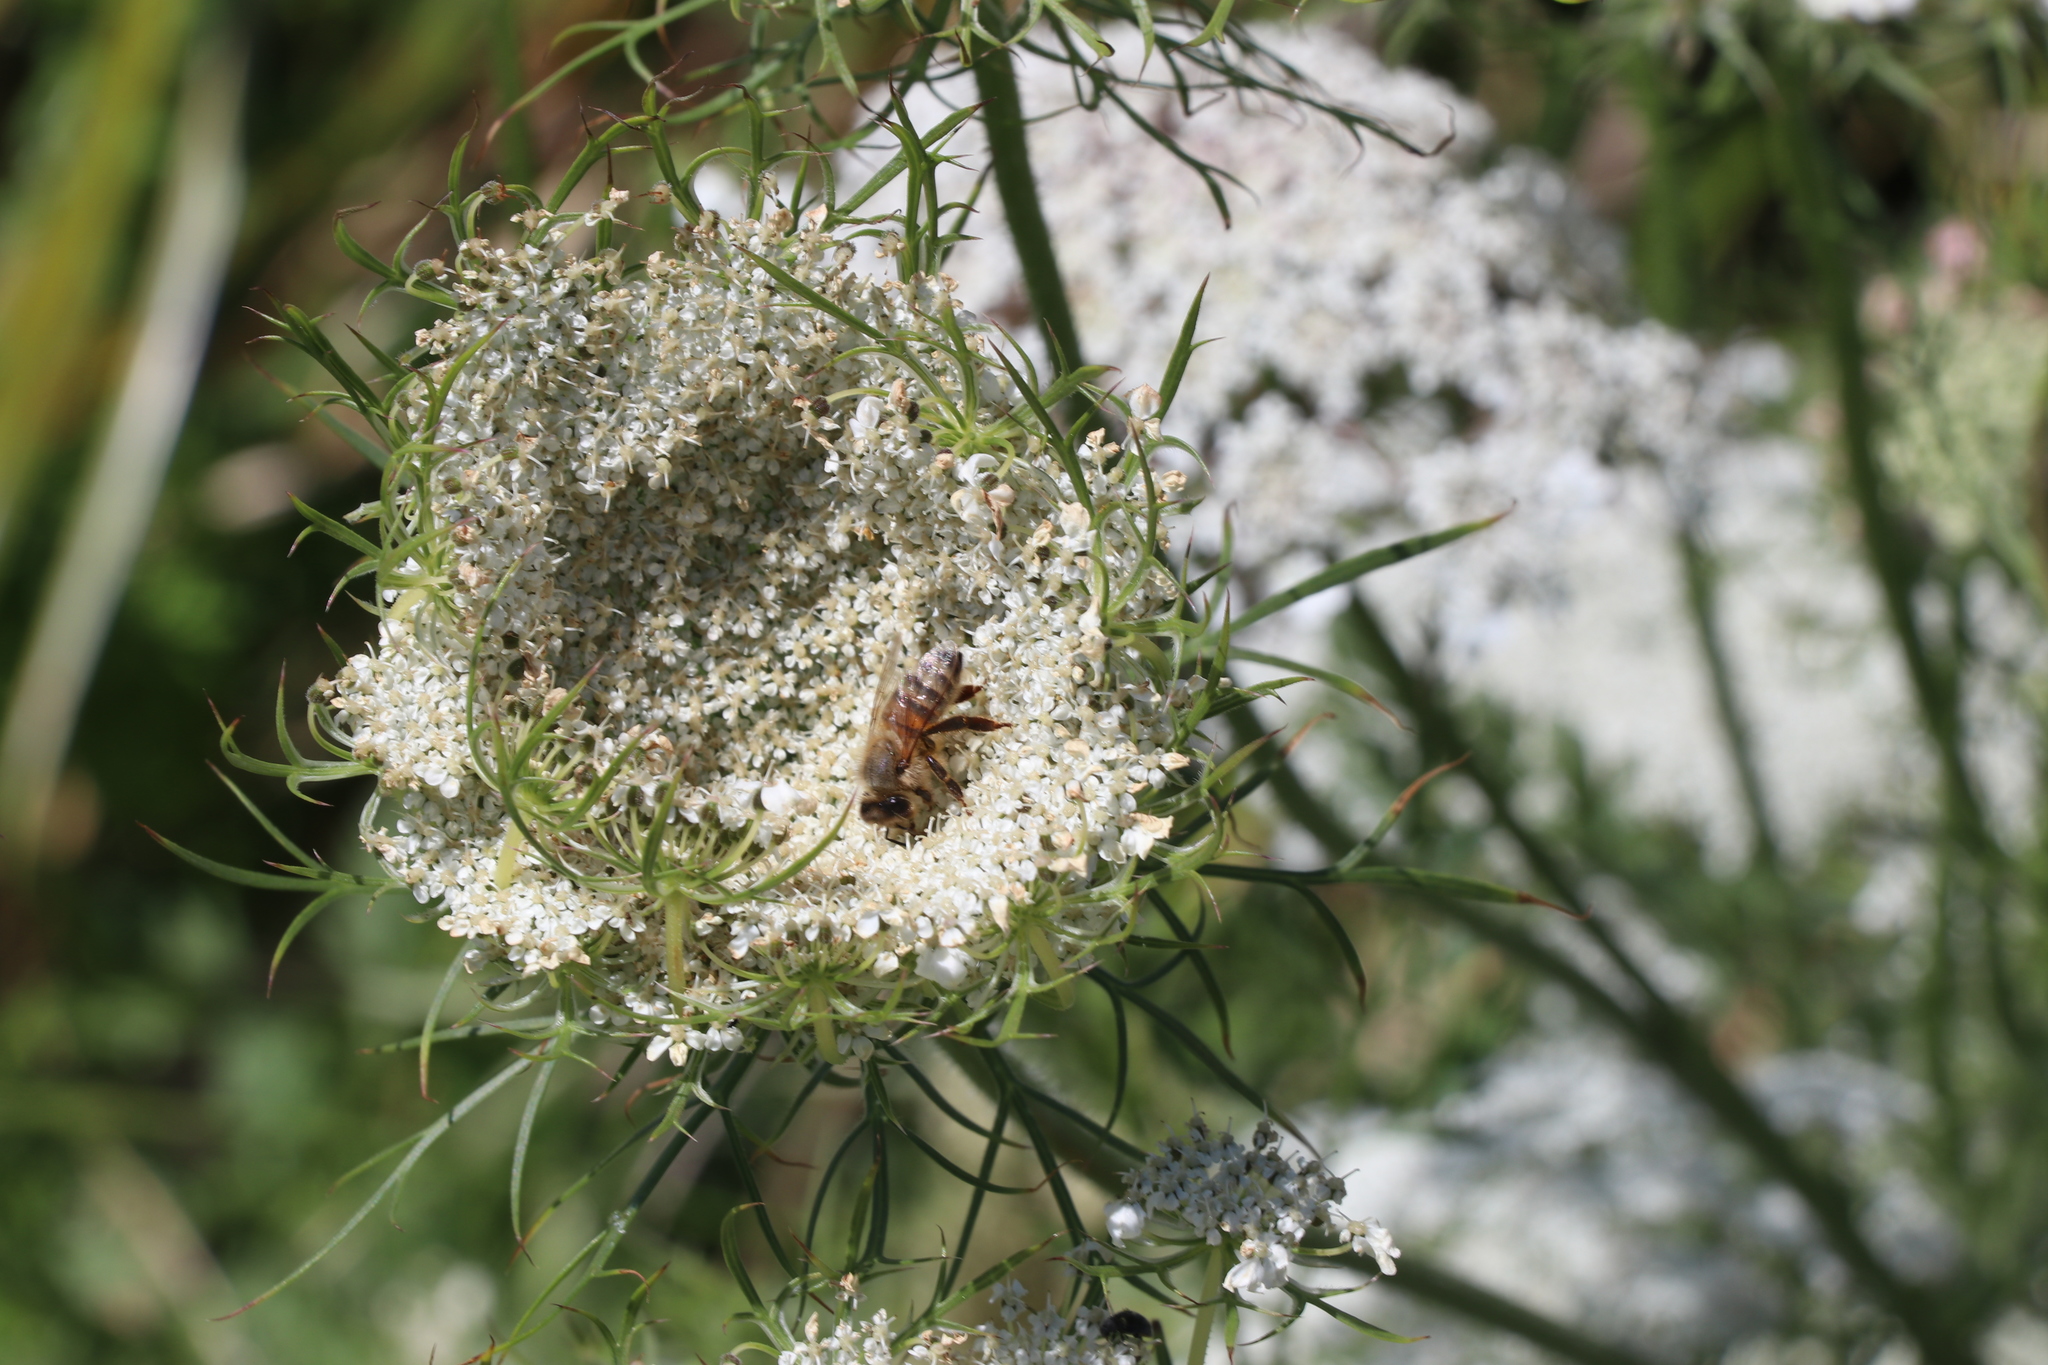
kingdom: Animalia
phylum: Arthropoda
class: Insecta
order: Hymenoptera
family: Apidae
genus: Apis
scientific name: Apis mellifera
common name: Honey bee
